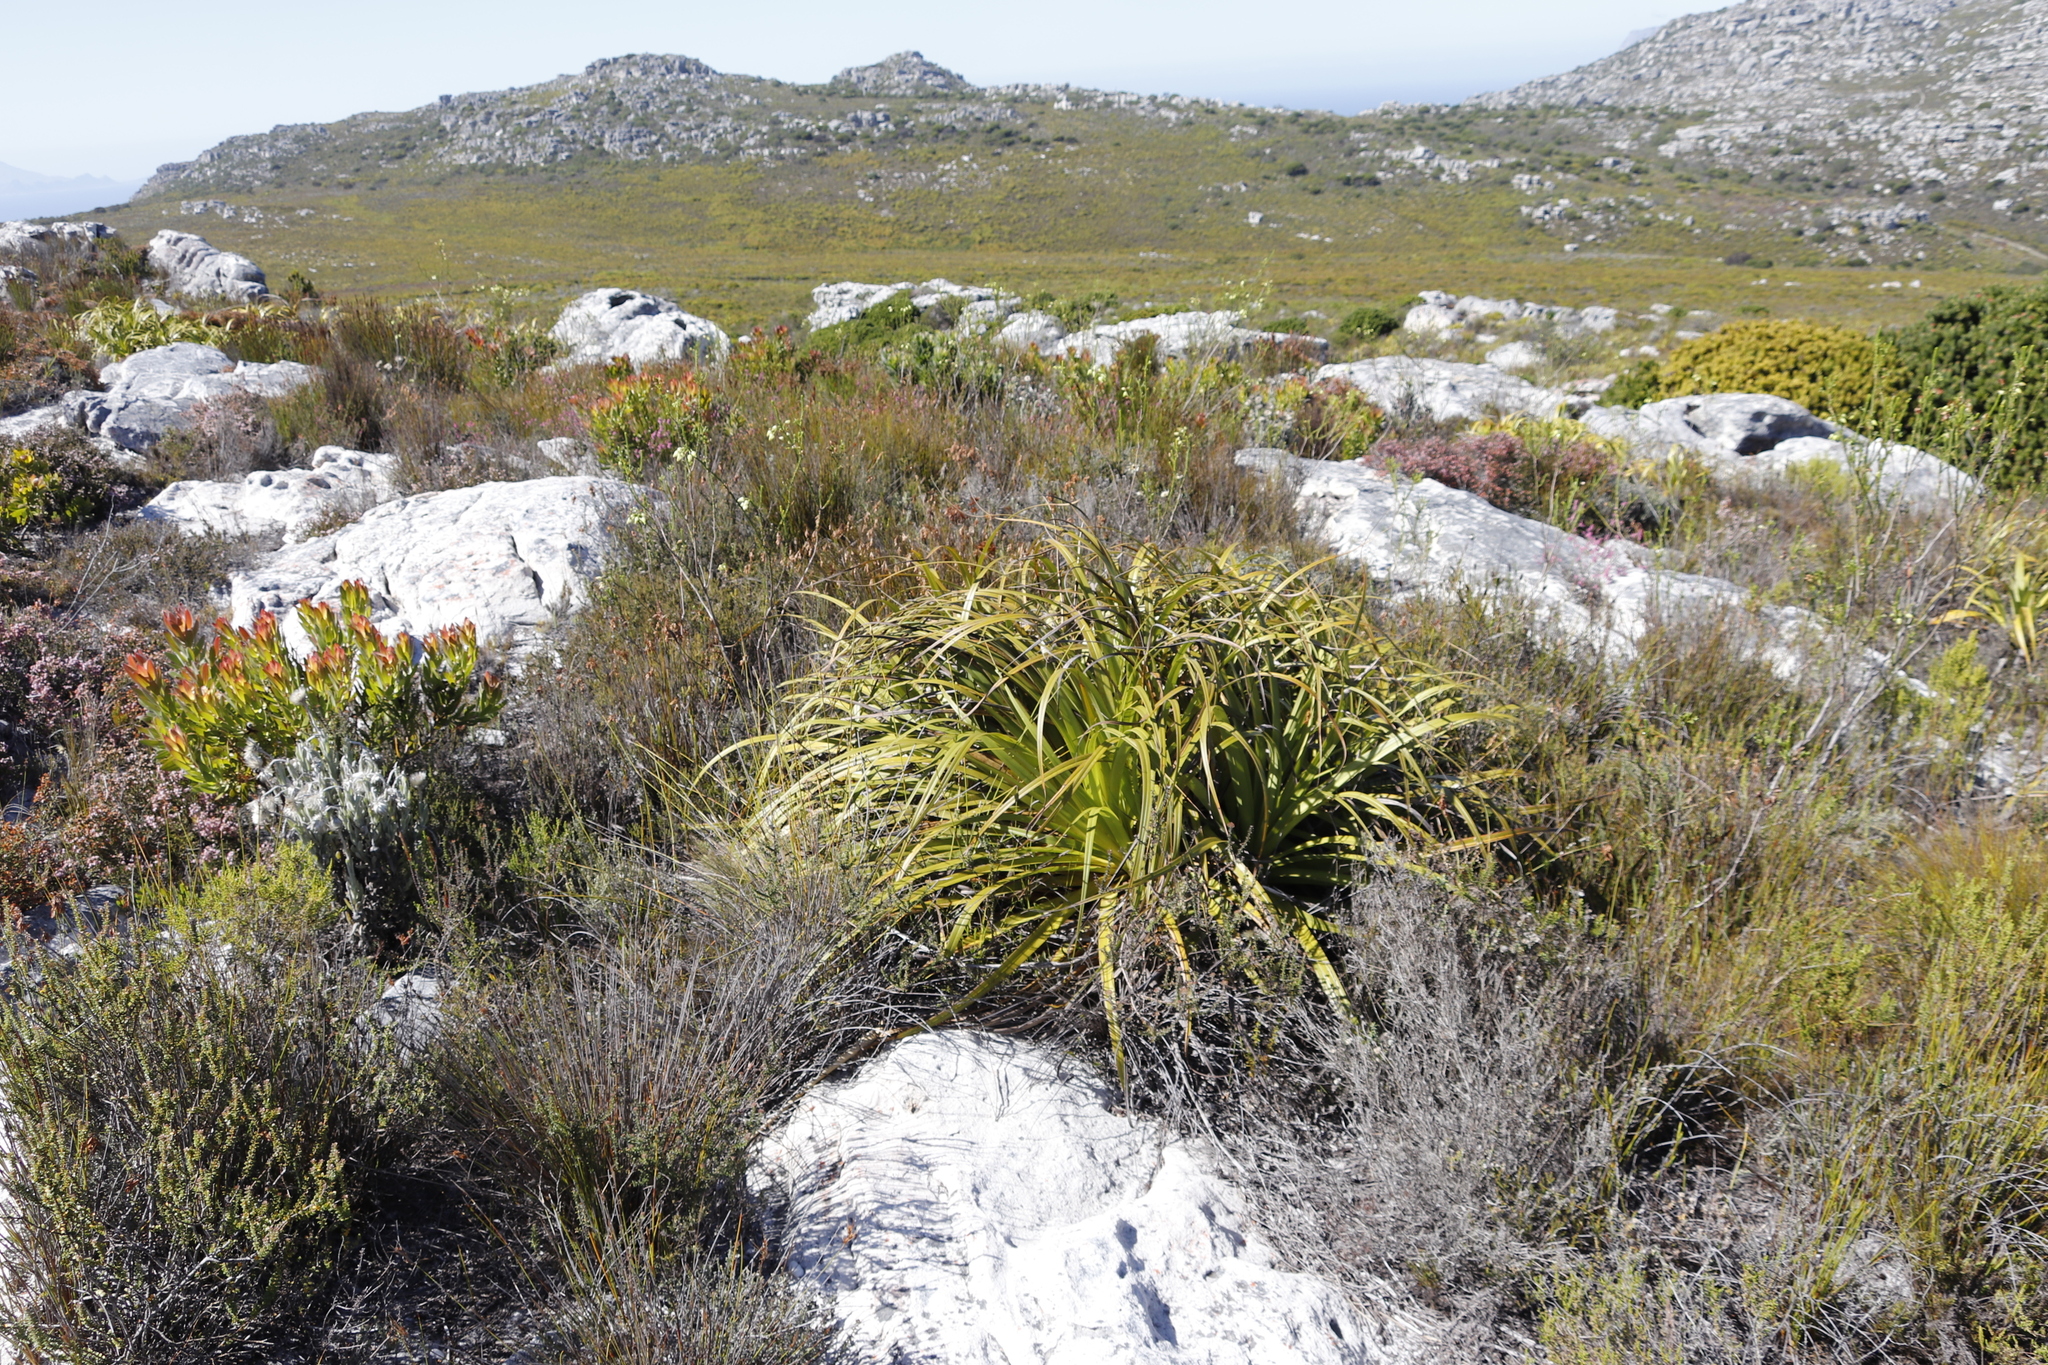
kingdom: Plantae
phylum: Tracheophyta
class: Liliopsida
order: Poales
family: Cyperaceae
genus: Tetraria
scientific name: Tetraria thermalis
